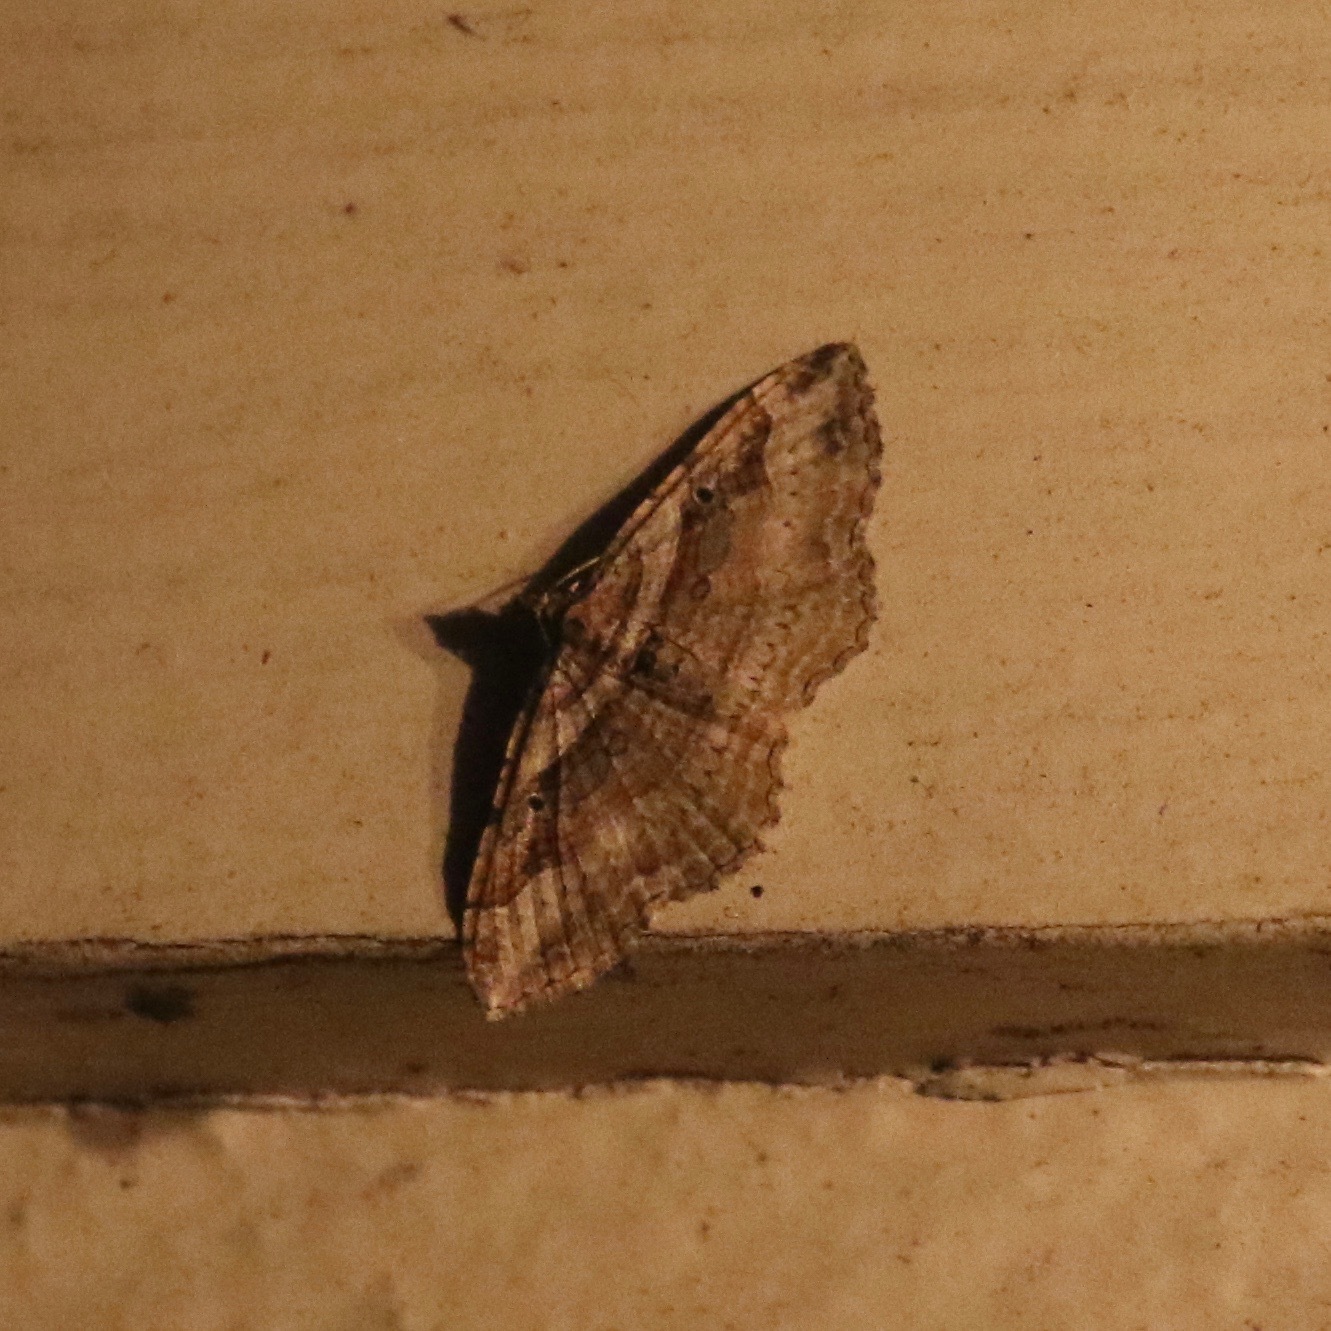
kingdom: Animalia
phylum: Arthropoda
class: Insecta
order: Lepidoptera
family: Geometridae
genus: Costaconvexa
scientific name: Costaconvexa centrostrigaria
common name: Bent-line carpet
